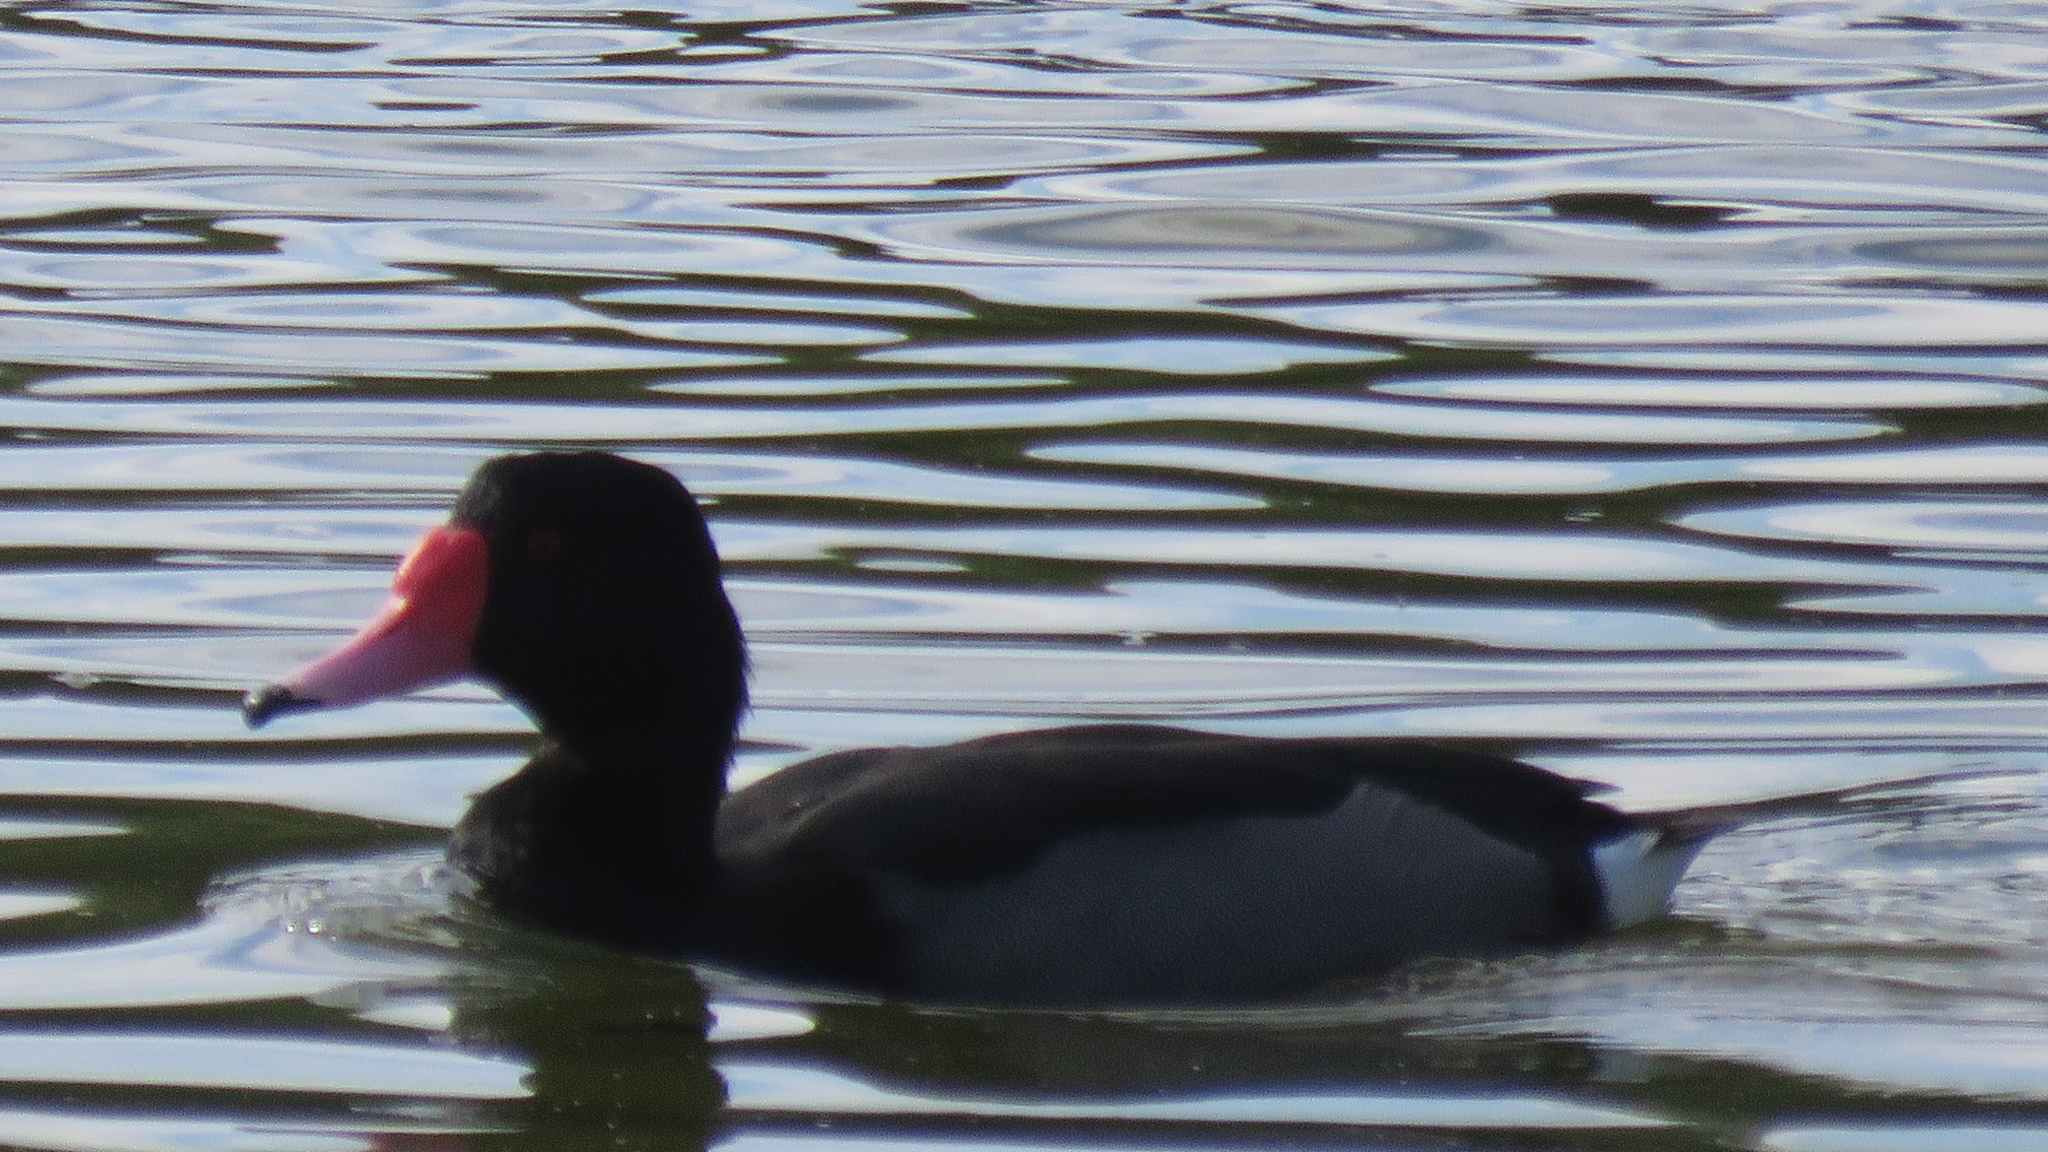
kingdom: Animalia
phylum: Chordata
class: Aves
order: Anseriformes
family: Anatidae
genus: Netta
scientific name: Netta peposaca
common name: Rosy-billed pochard
